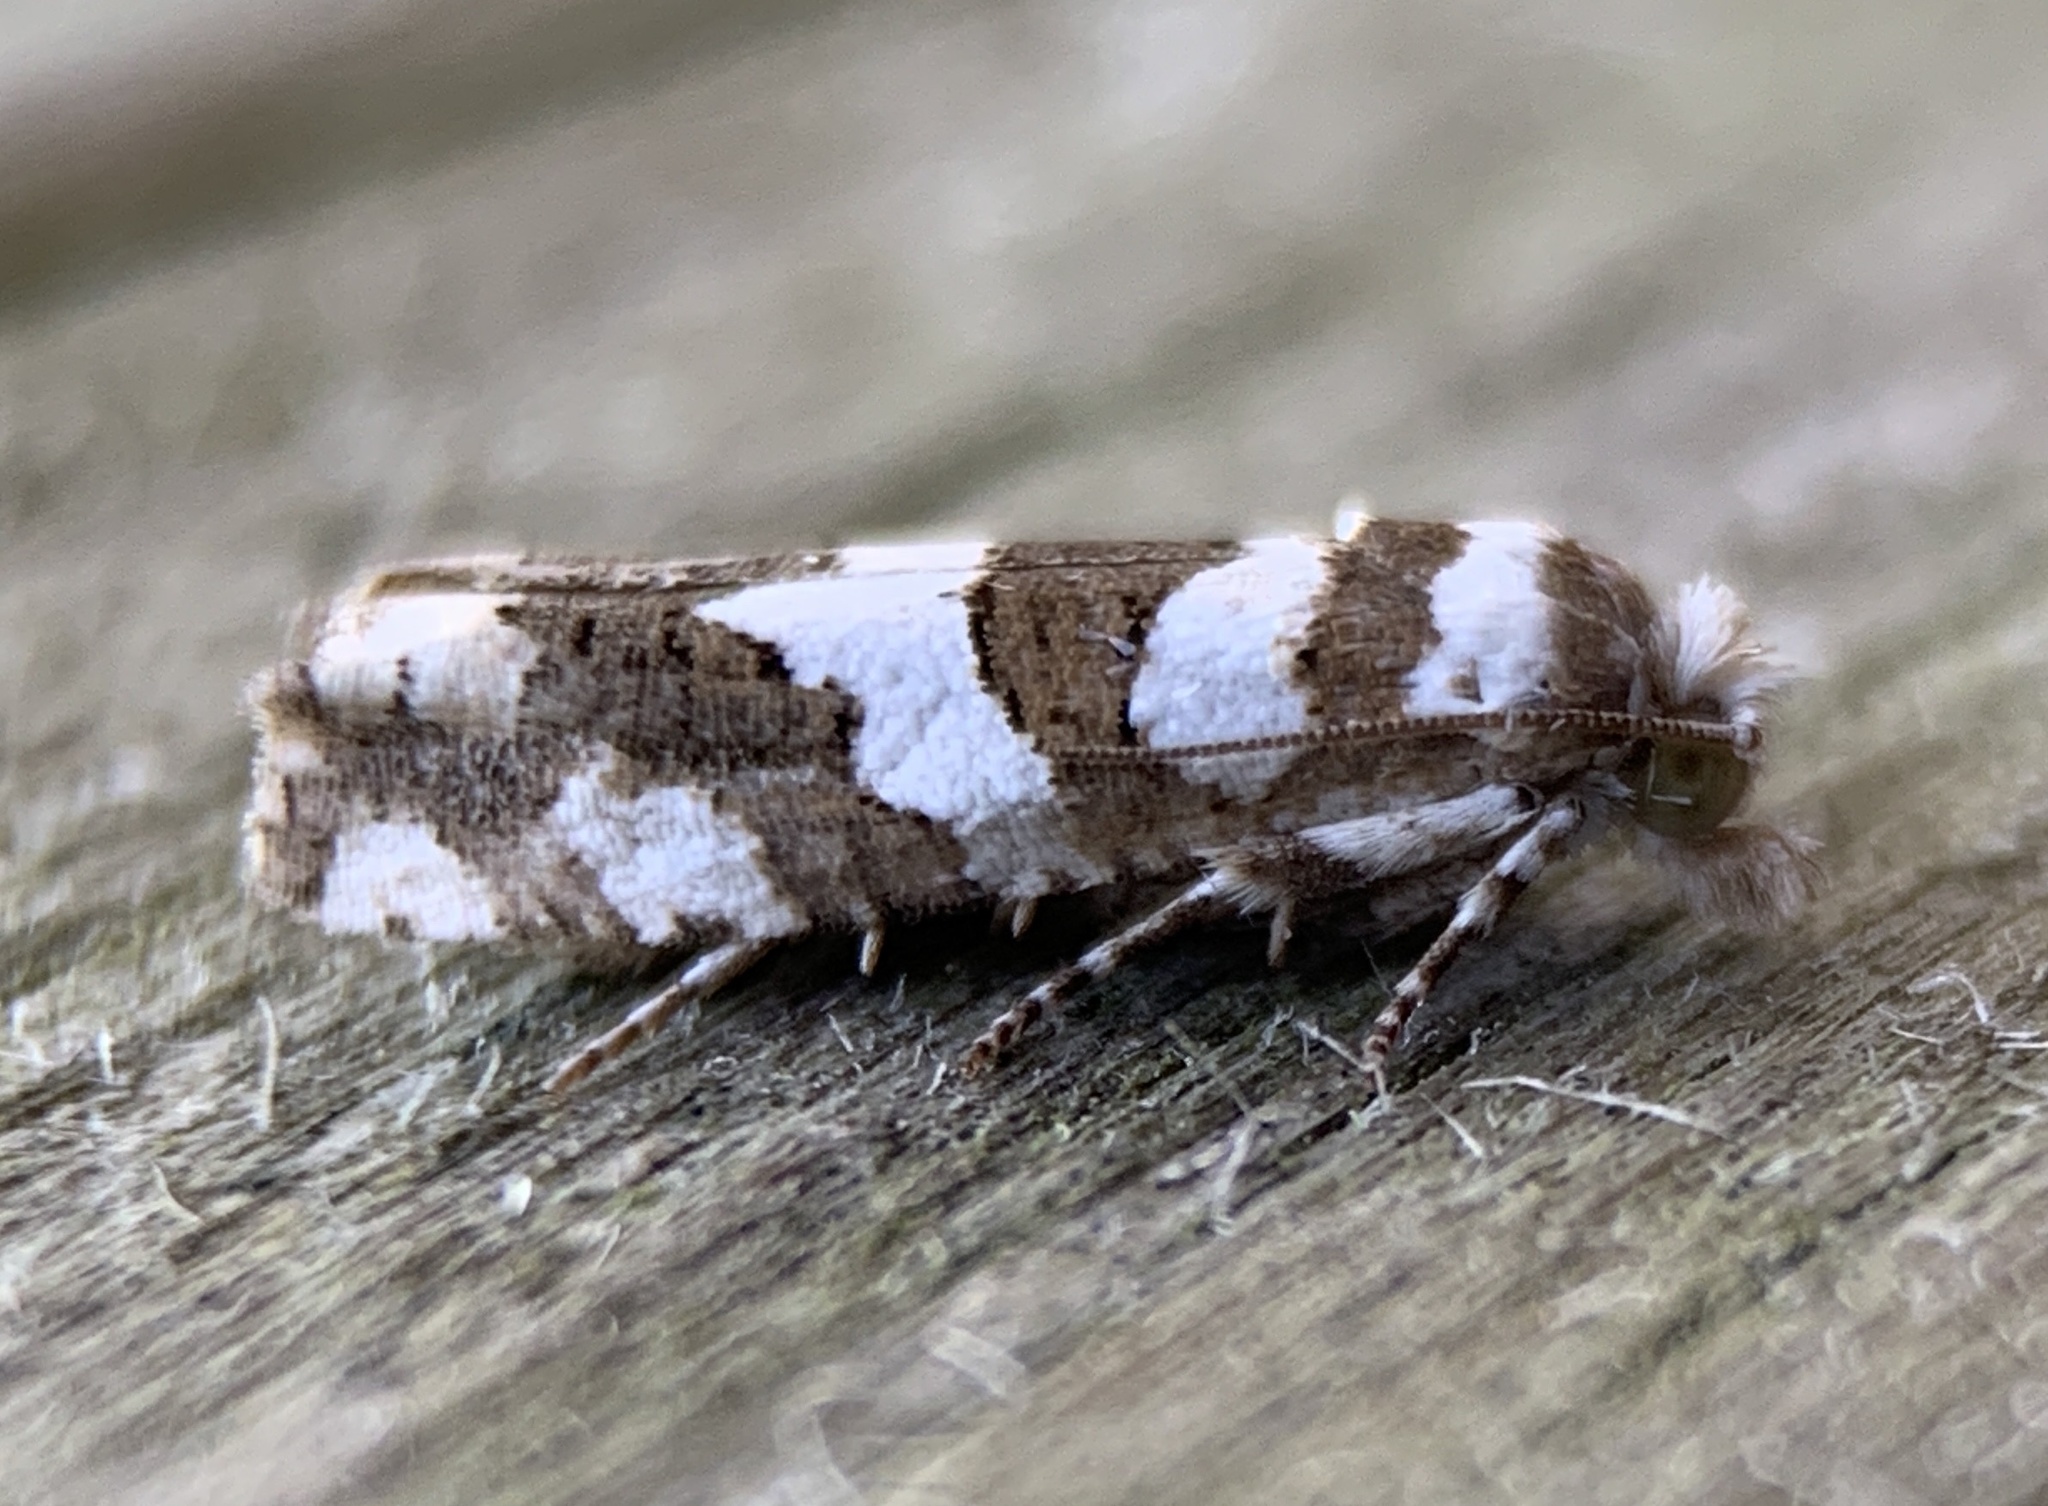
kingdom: Animalia
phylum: Arthropoda
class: Insecta
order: Lepidoptera
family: Tortricidae
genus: Pelochrista
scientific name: Pelochrista robinsonana
